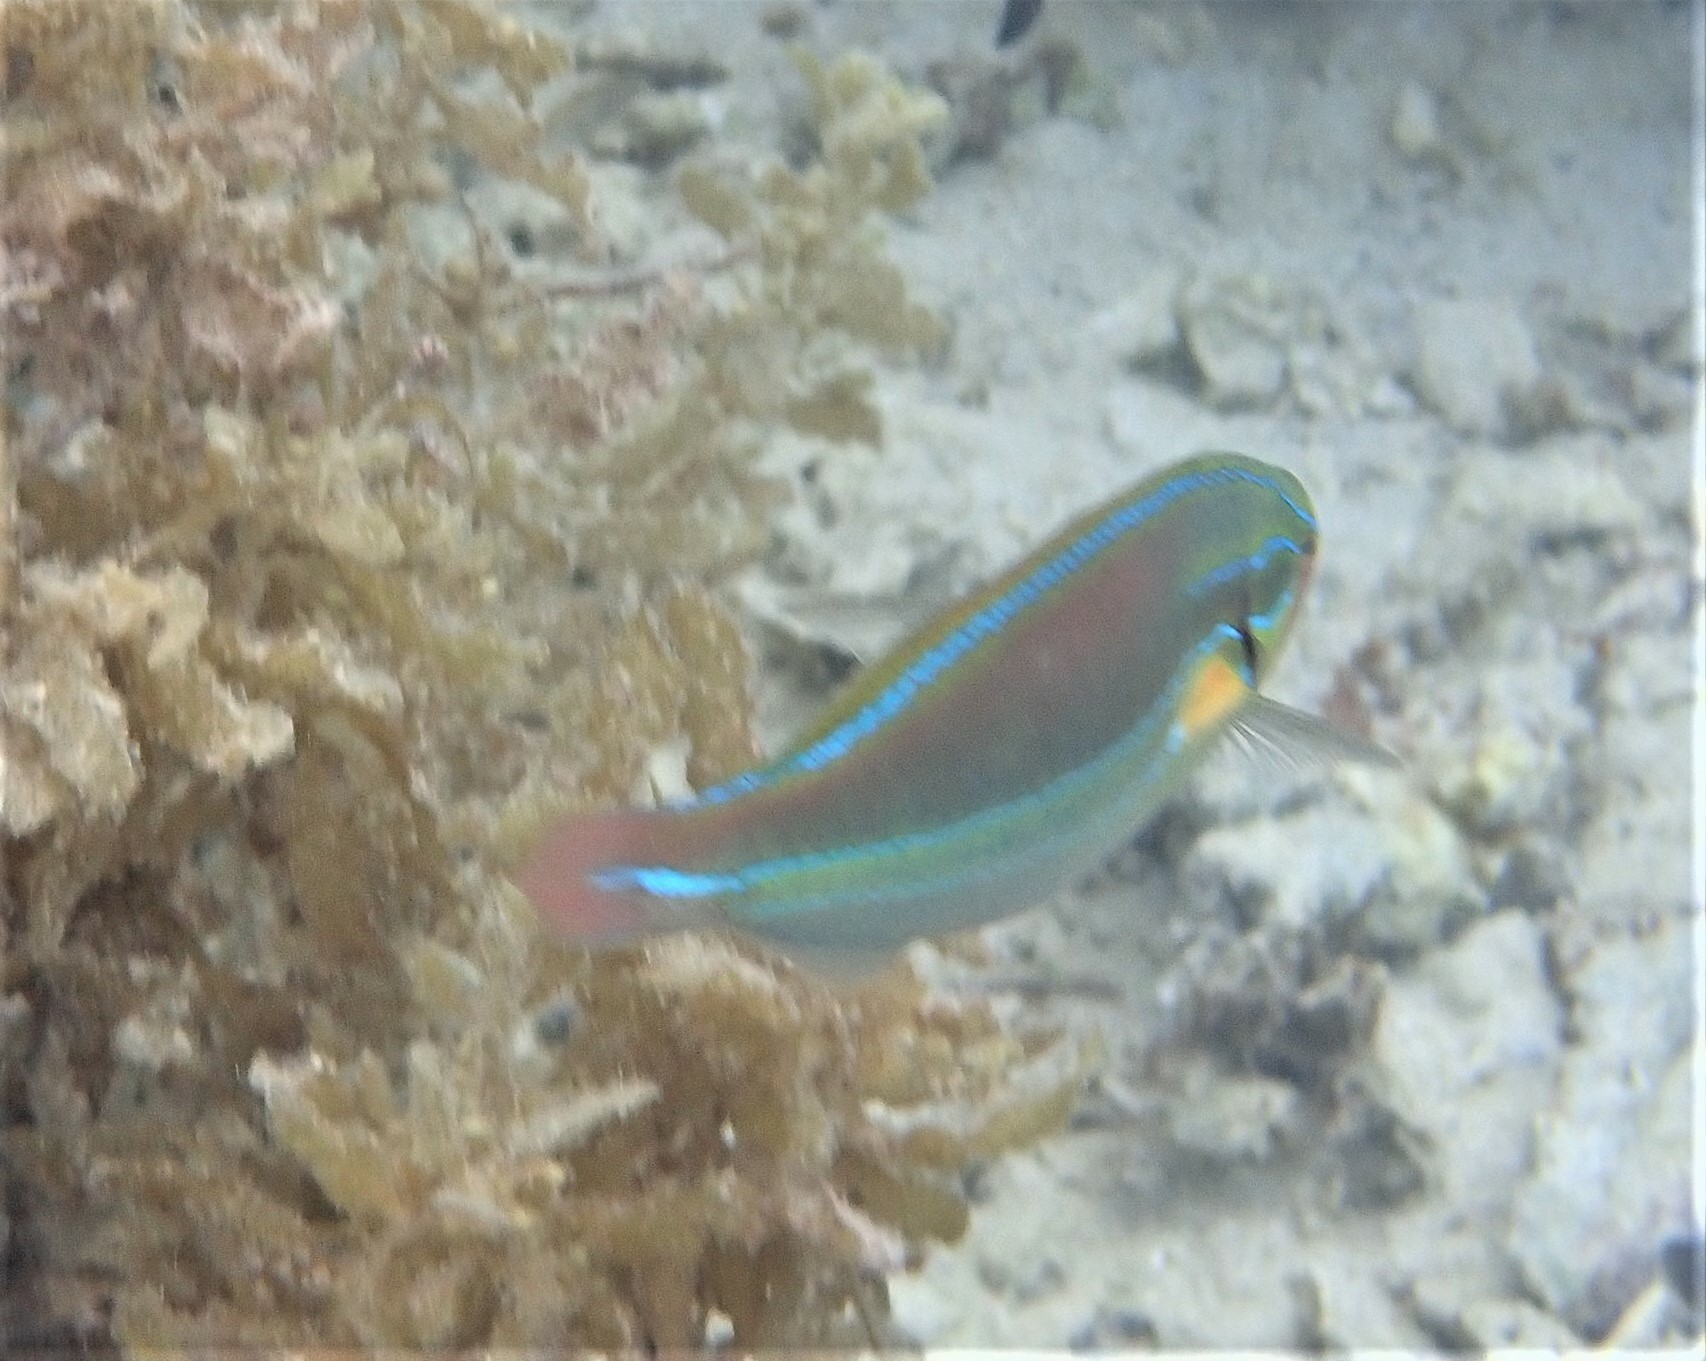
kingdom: Animalia
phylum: Chordata
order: Perciformes
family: Labridae
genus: Stethojulis
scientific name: Stethojulis albovittata
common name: Bluelined wrasse
